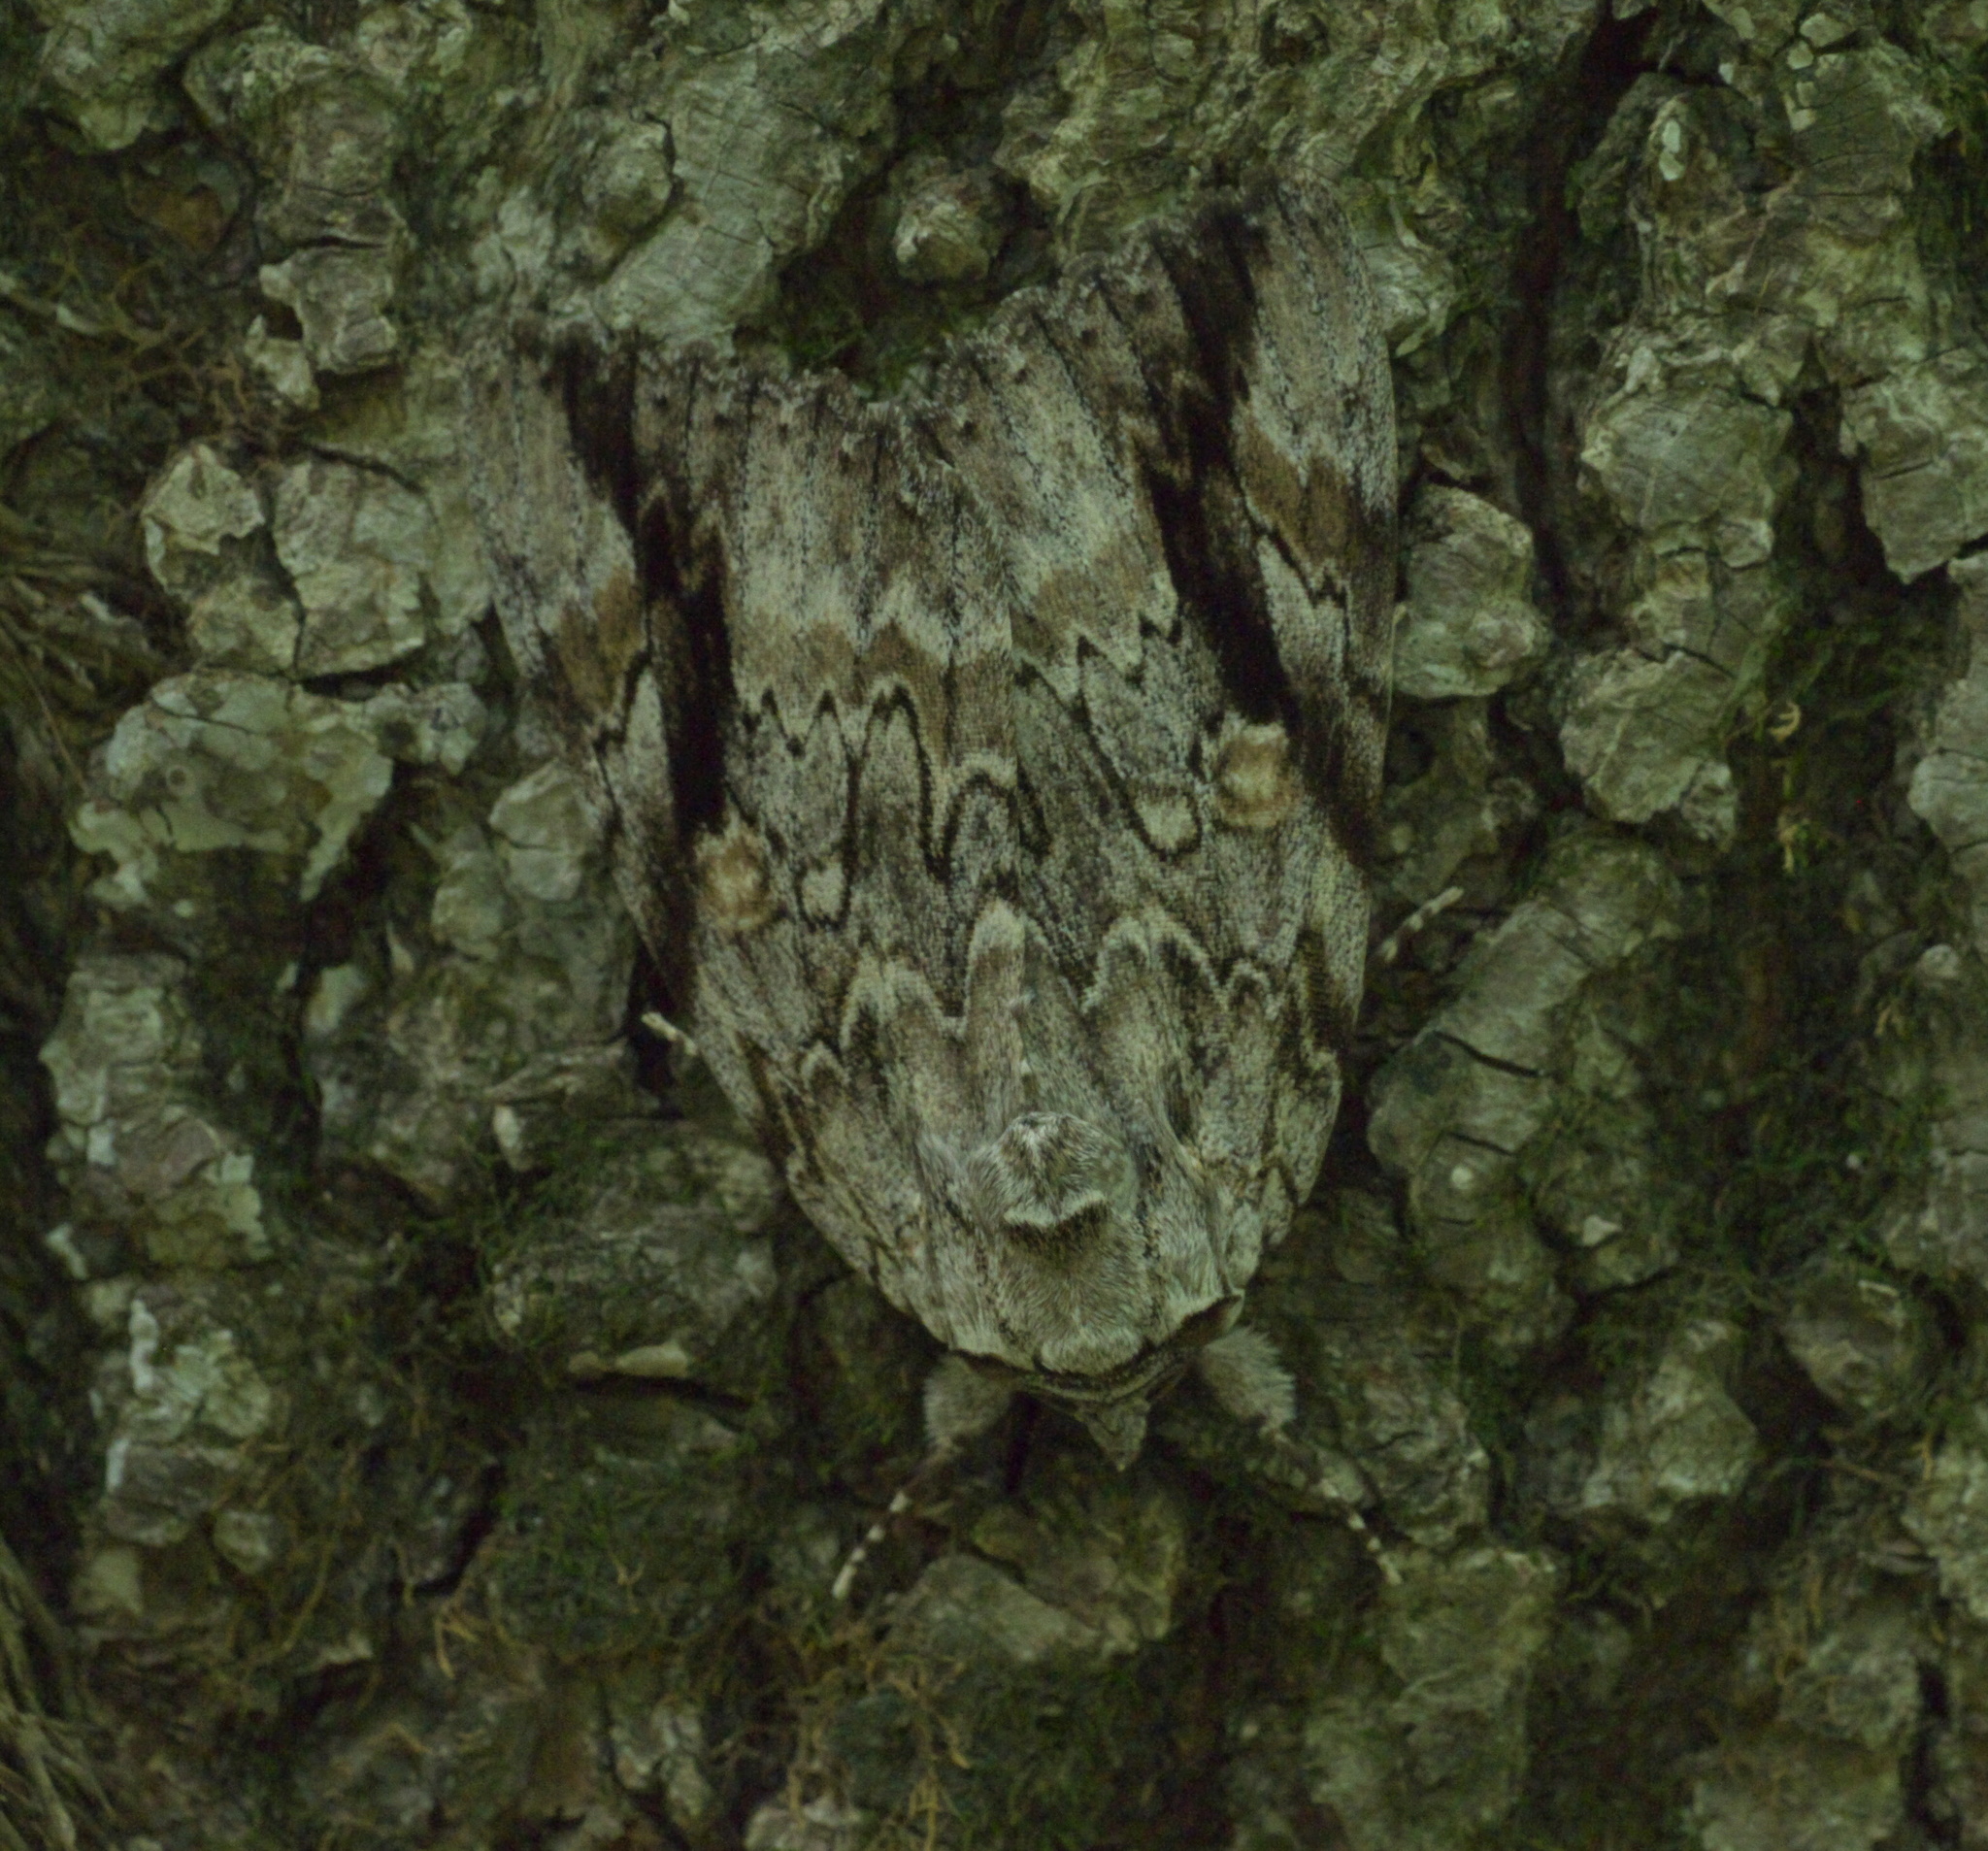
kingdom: Animalia
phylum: Arthropoda
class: Insecta
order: Lepidoptera
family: Erebidae
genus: Catocala
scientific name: Catocala maestosa
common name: Sad underwing
